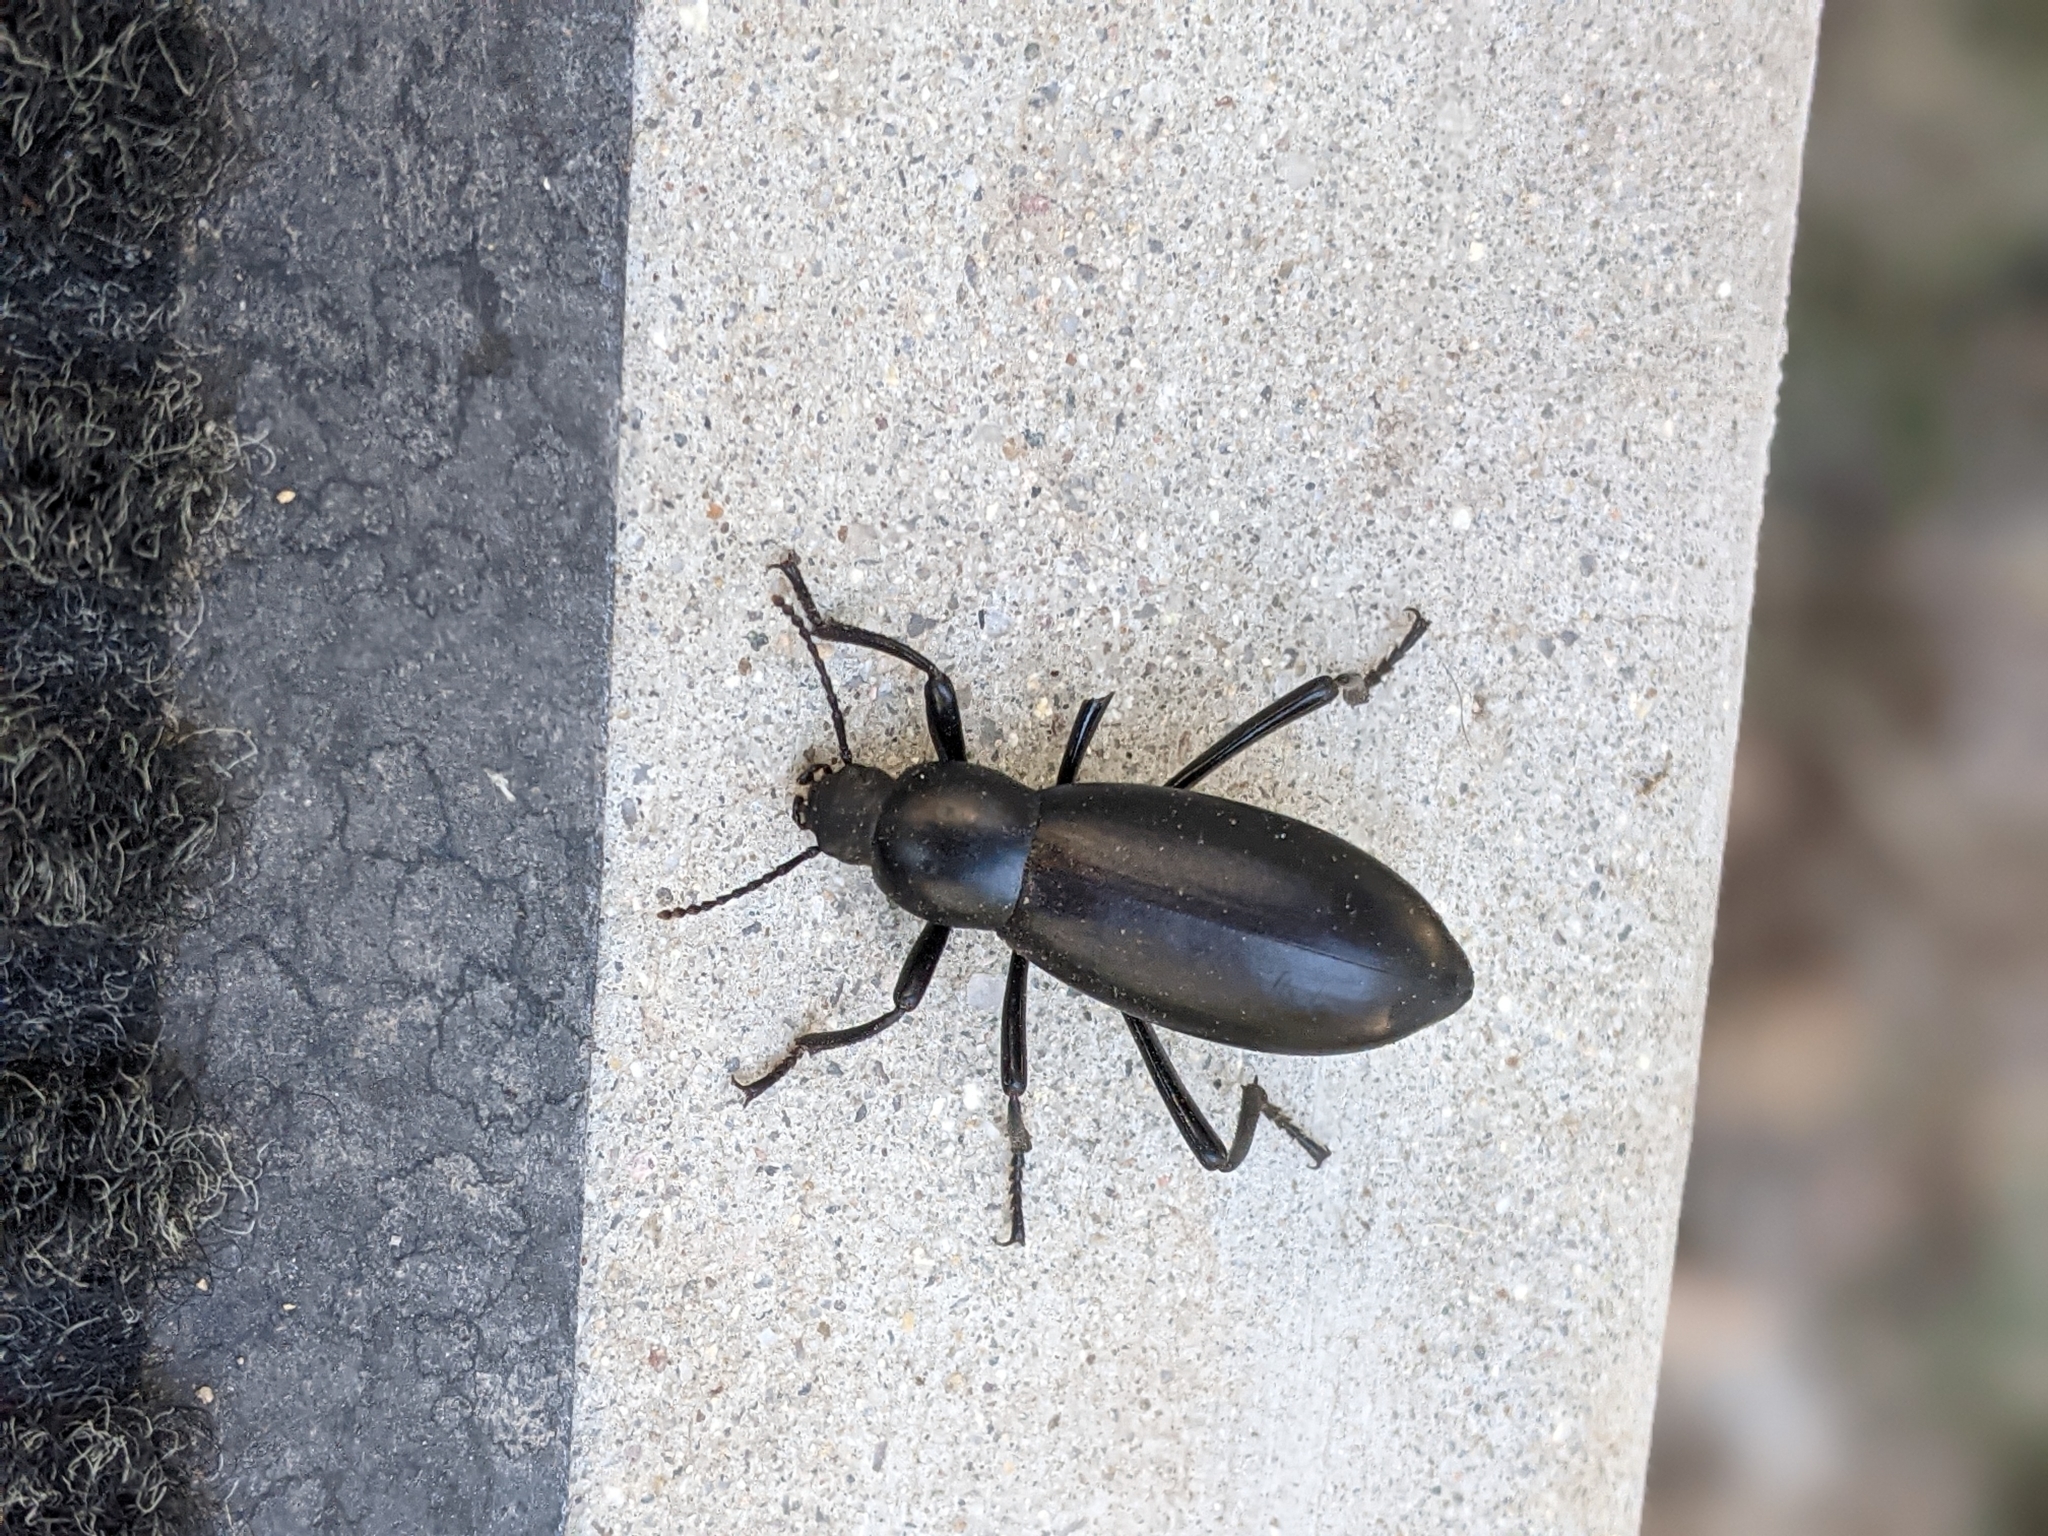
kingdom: Animalia
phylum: Arthropoda
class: Insecta
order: Coleoptera
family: Tenebrionidae
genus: Eleodes
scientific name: Eleodes longicollis
